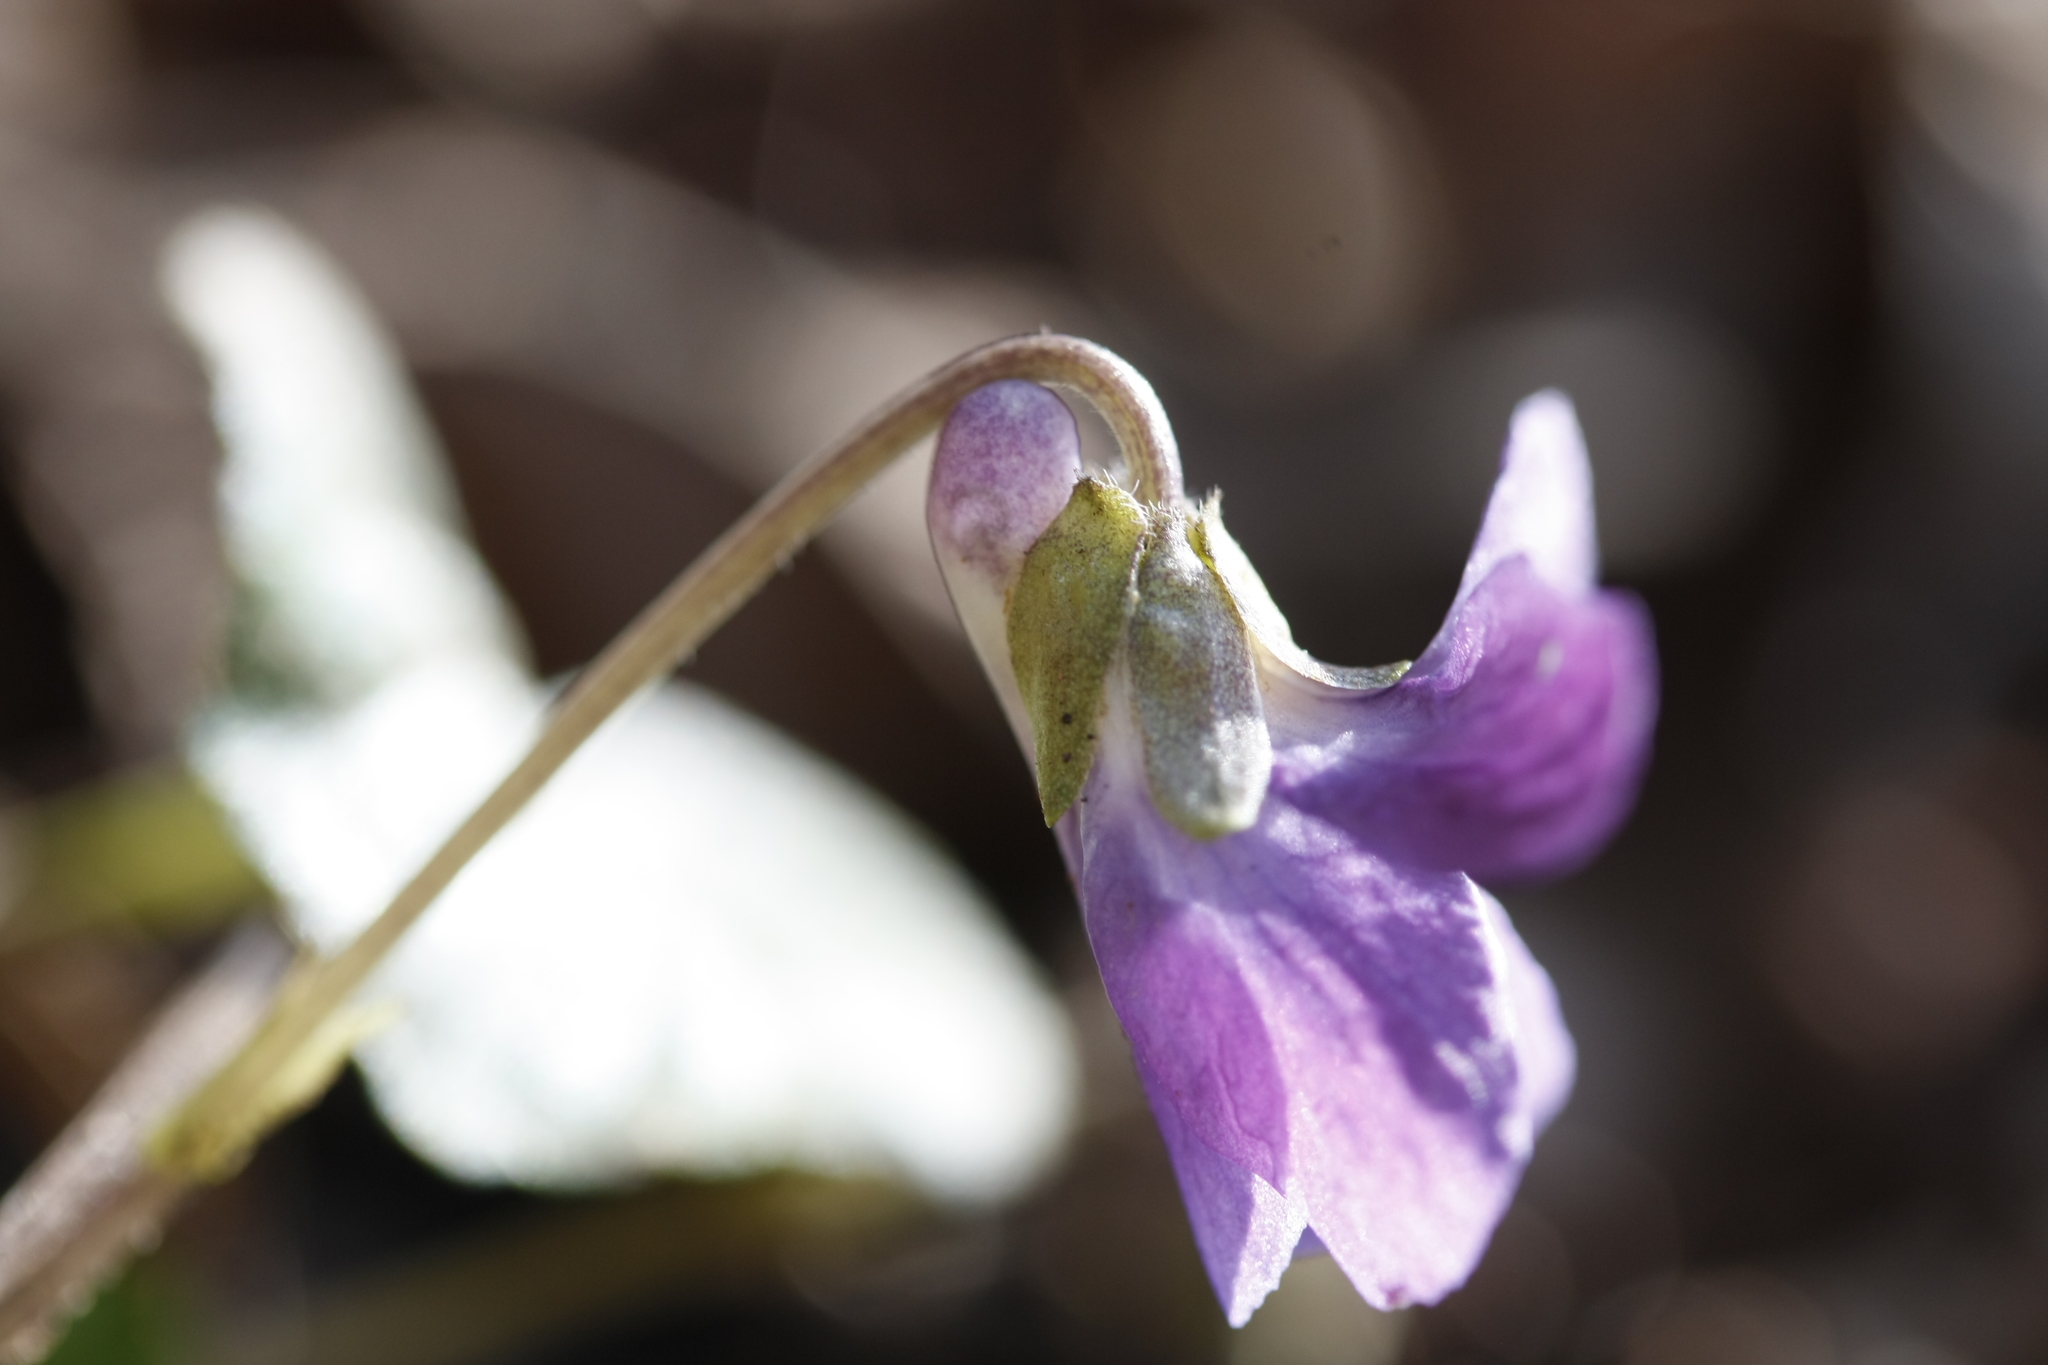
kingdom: Plantae
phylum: Tracheophyta
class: Magnoliopsida
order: Malpighiales
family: Violaceae
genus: Viola
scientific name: Viola odorata
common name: Sweet violet
